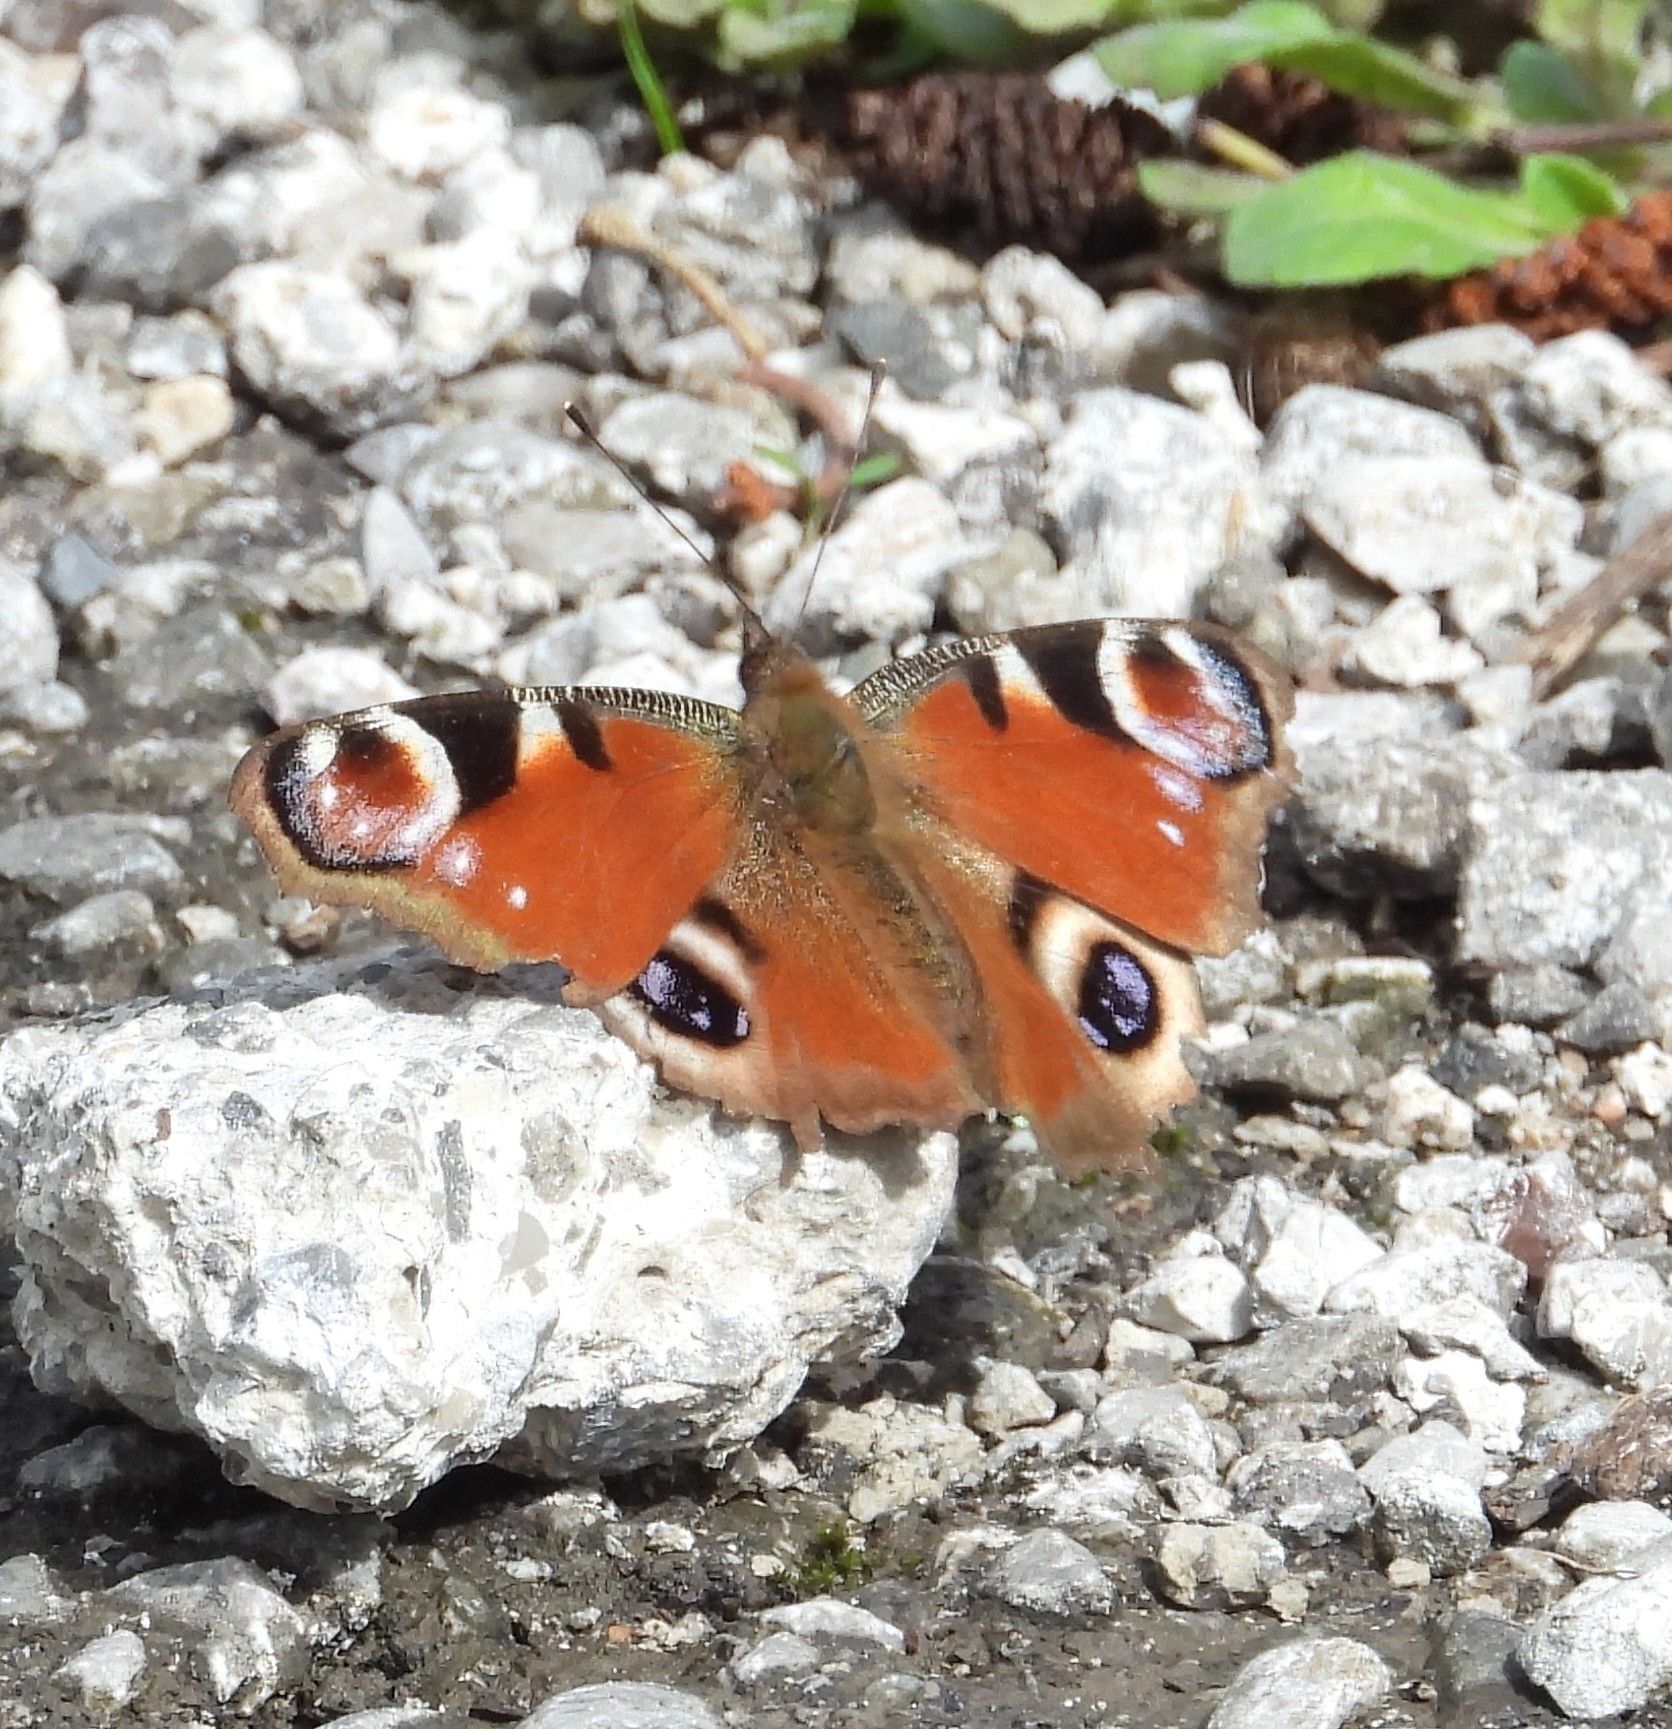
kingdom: Animalia
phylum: Arthropoda
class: Insecta
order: Lepidoptera
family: Nymphalidae
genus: Aglais
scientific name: Aglais io
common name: Peacock
